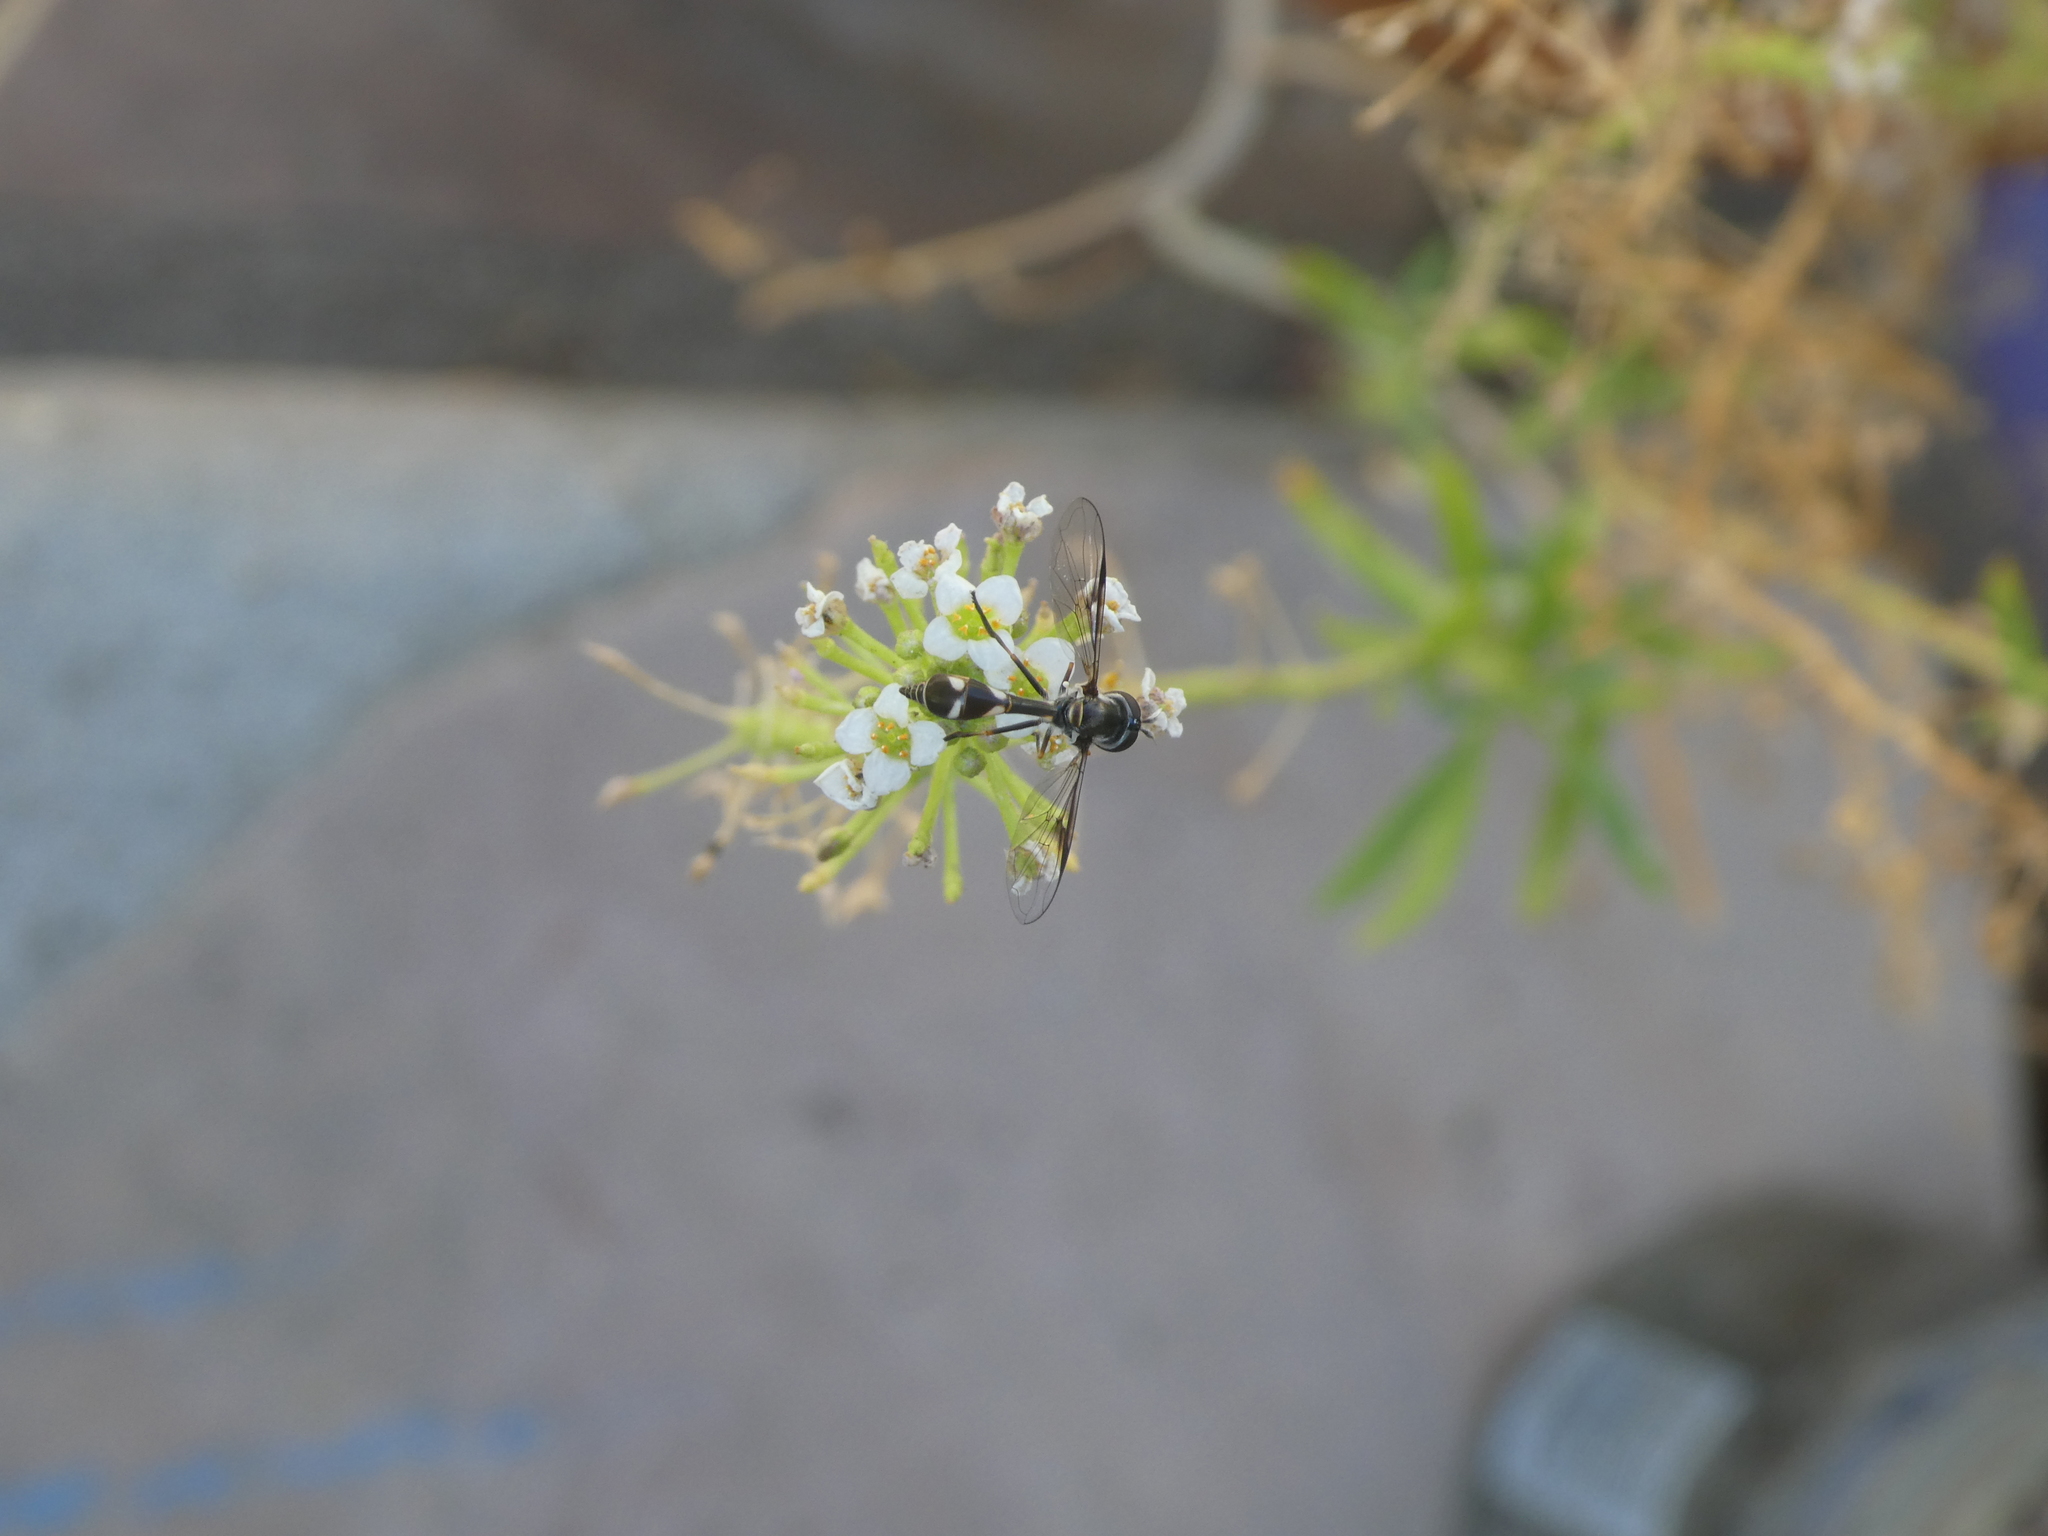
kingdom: Animalia
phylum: Arthropoda
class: Insecta
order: Diptera
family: Syrphidae
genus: Dioprosopa
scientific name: Dioprosopa clavatus
